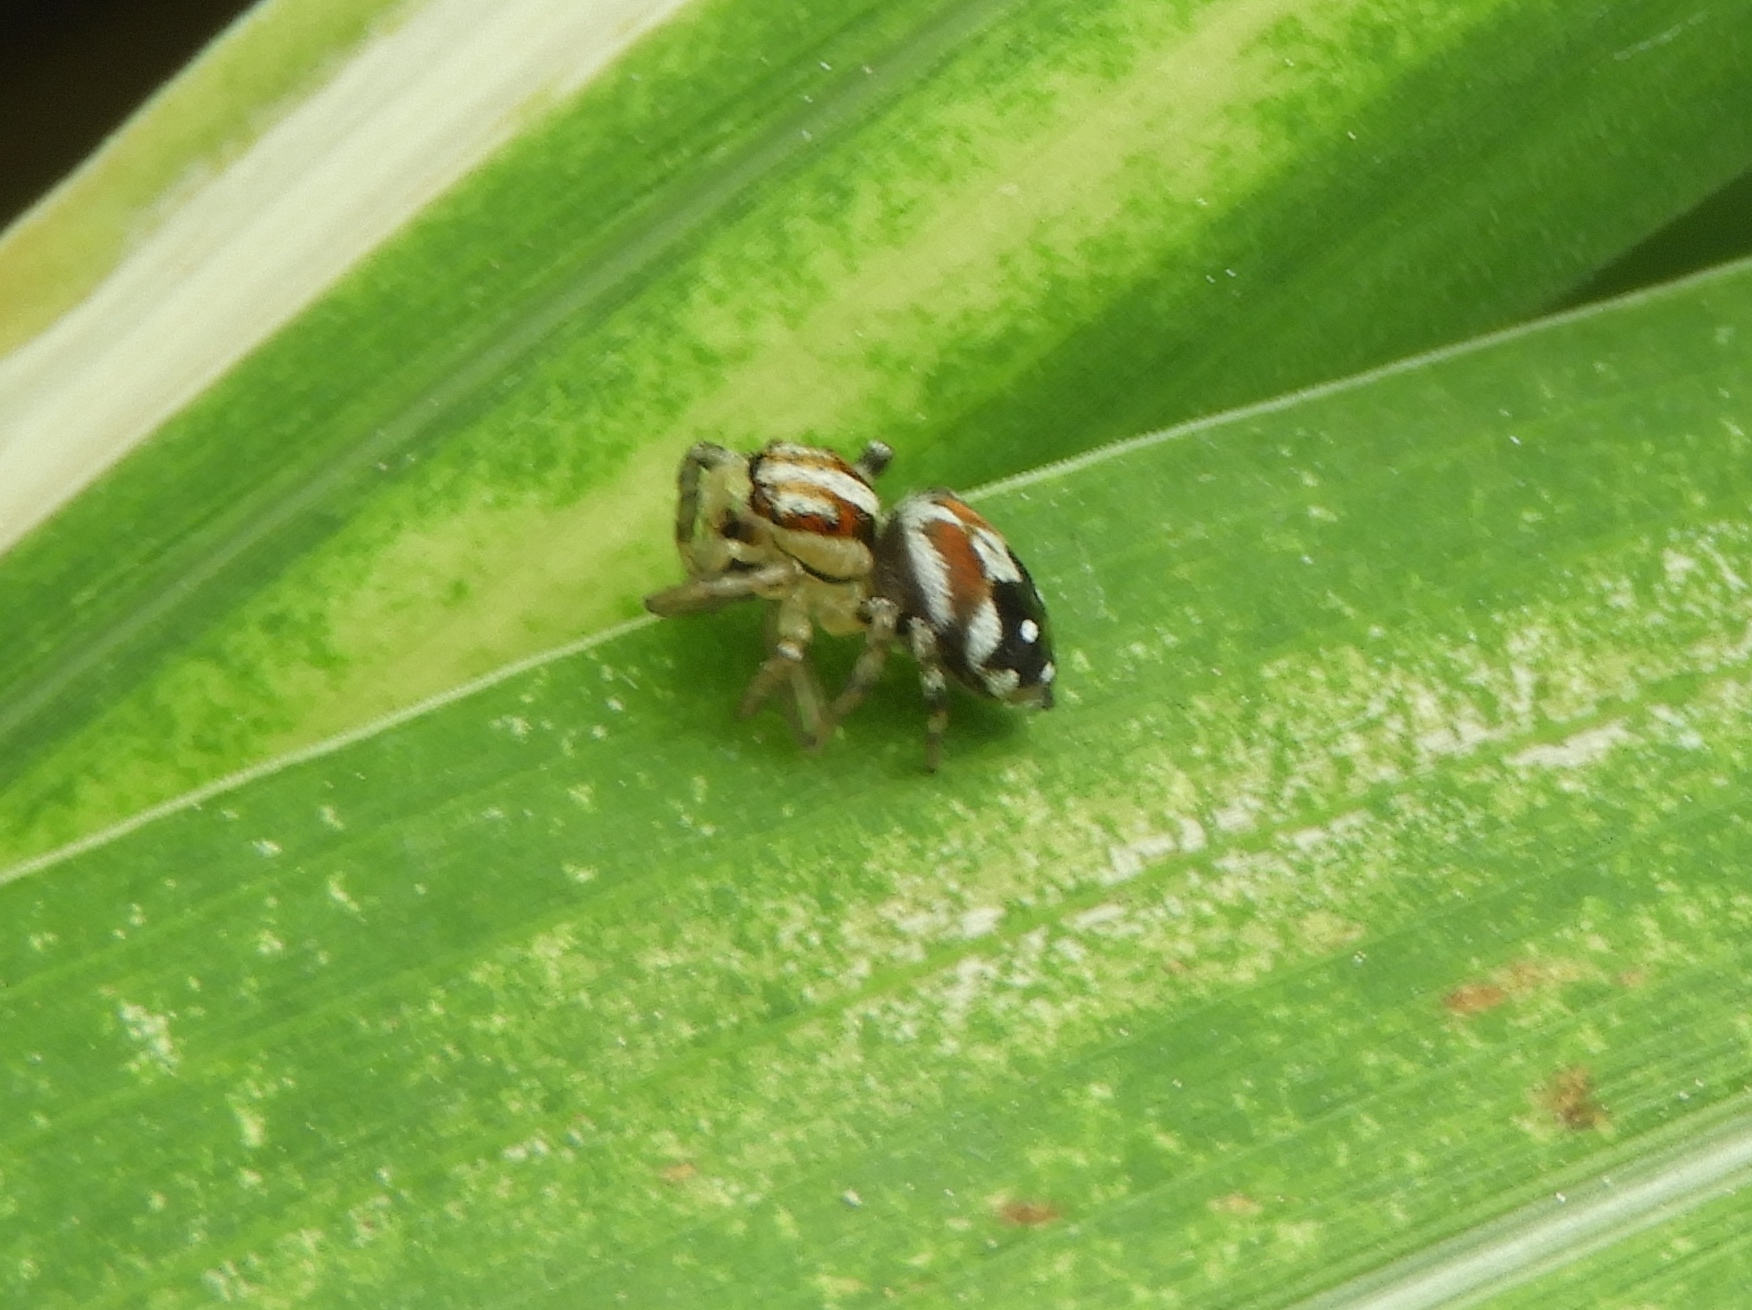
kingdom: Animalia
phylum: Arthropoda
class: Arachnida
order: Araneae
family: Salticidae
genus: Nycerella
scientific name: Nycerella delecta
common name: Jumping spiders
